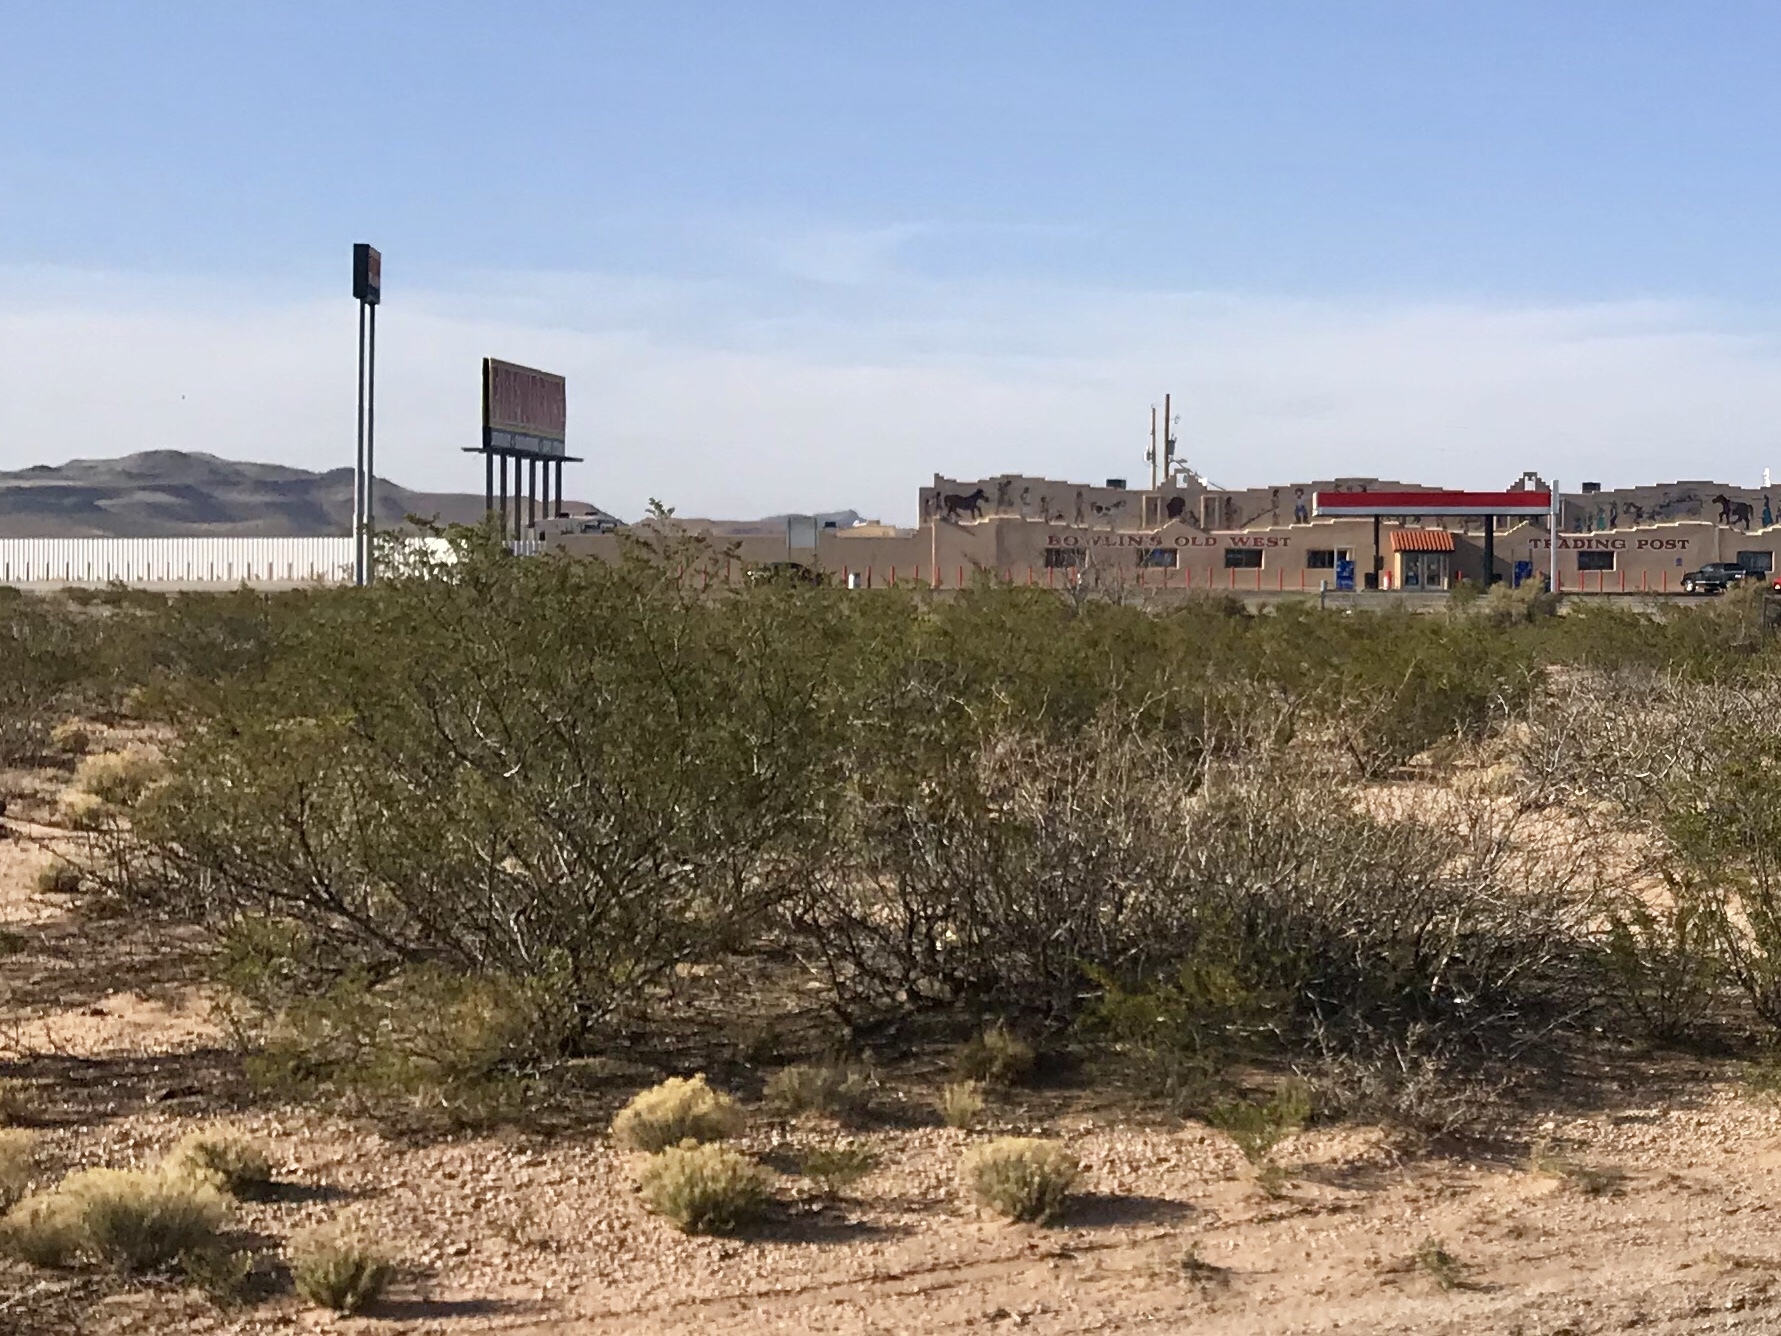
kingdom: Plantae
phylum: Tracheophyta
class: Magnoliopsida
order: Zygophyllales
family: Zygophyllaceae
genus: Larrea
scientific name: Larrea tridentata
